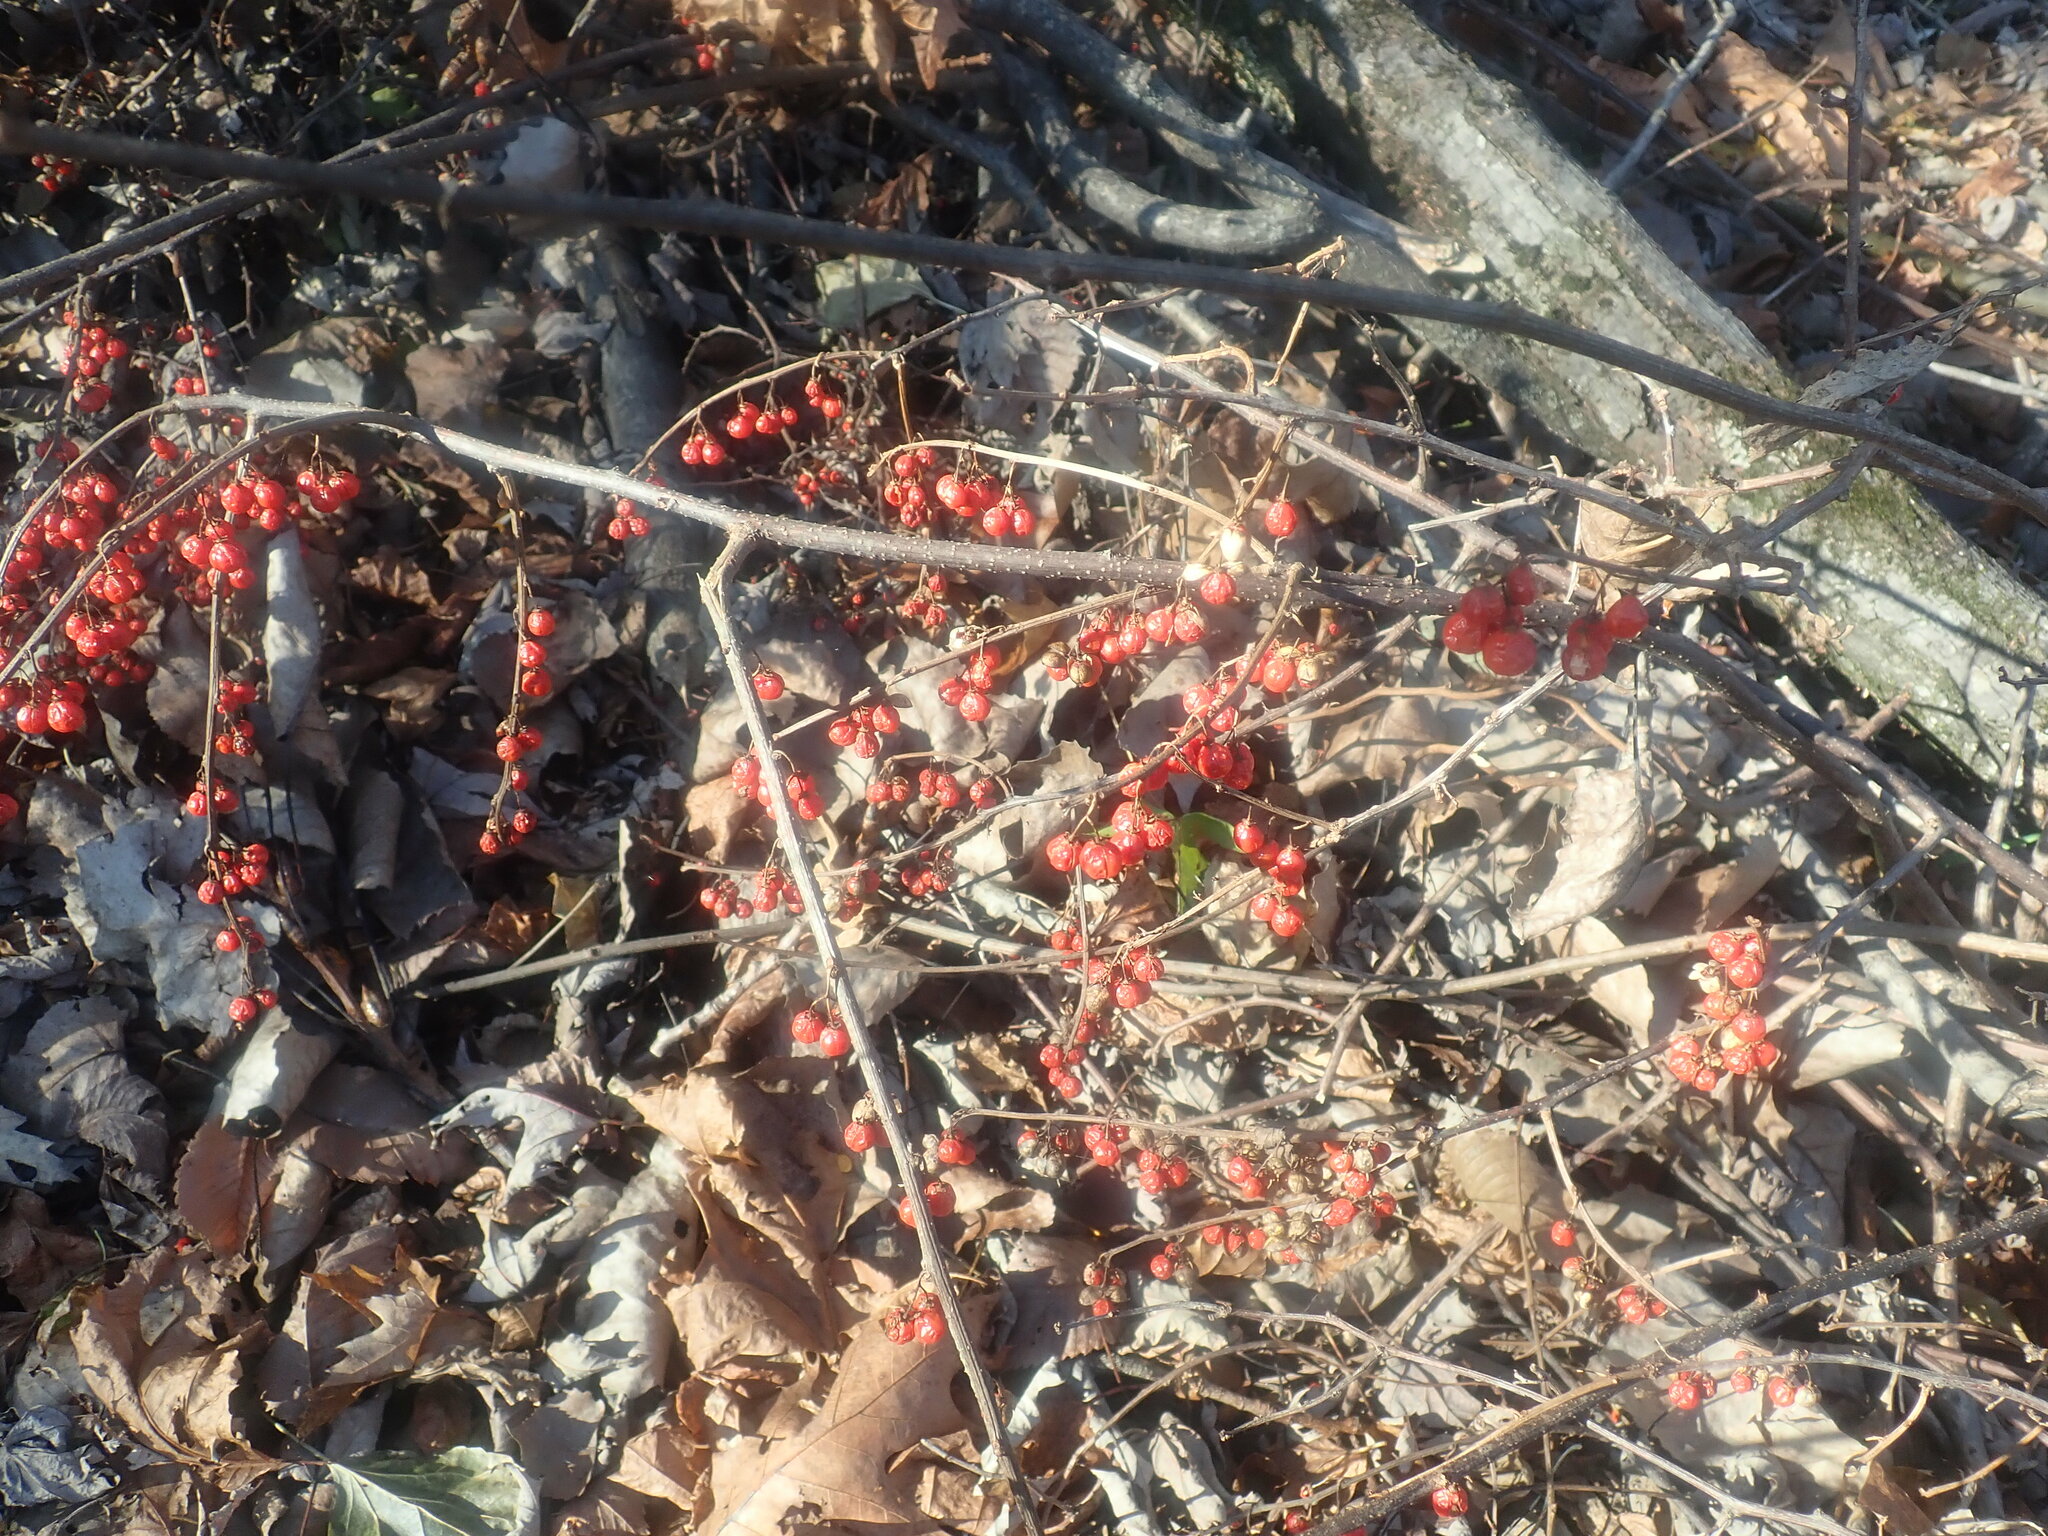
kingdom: Plantae
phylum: Tracheophyta
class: Magnoliopsida
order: Celastrales
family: Celastraceae
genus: Celastrus
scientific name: Celastrus orbiculatus
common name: Oriental bittersweet
